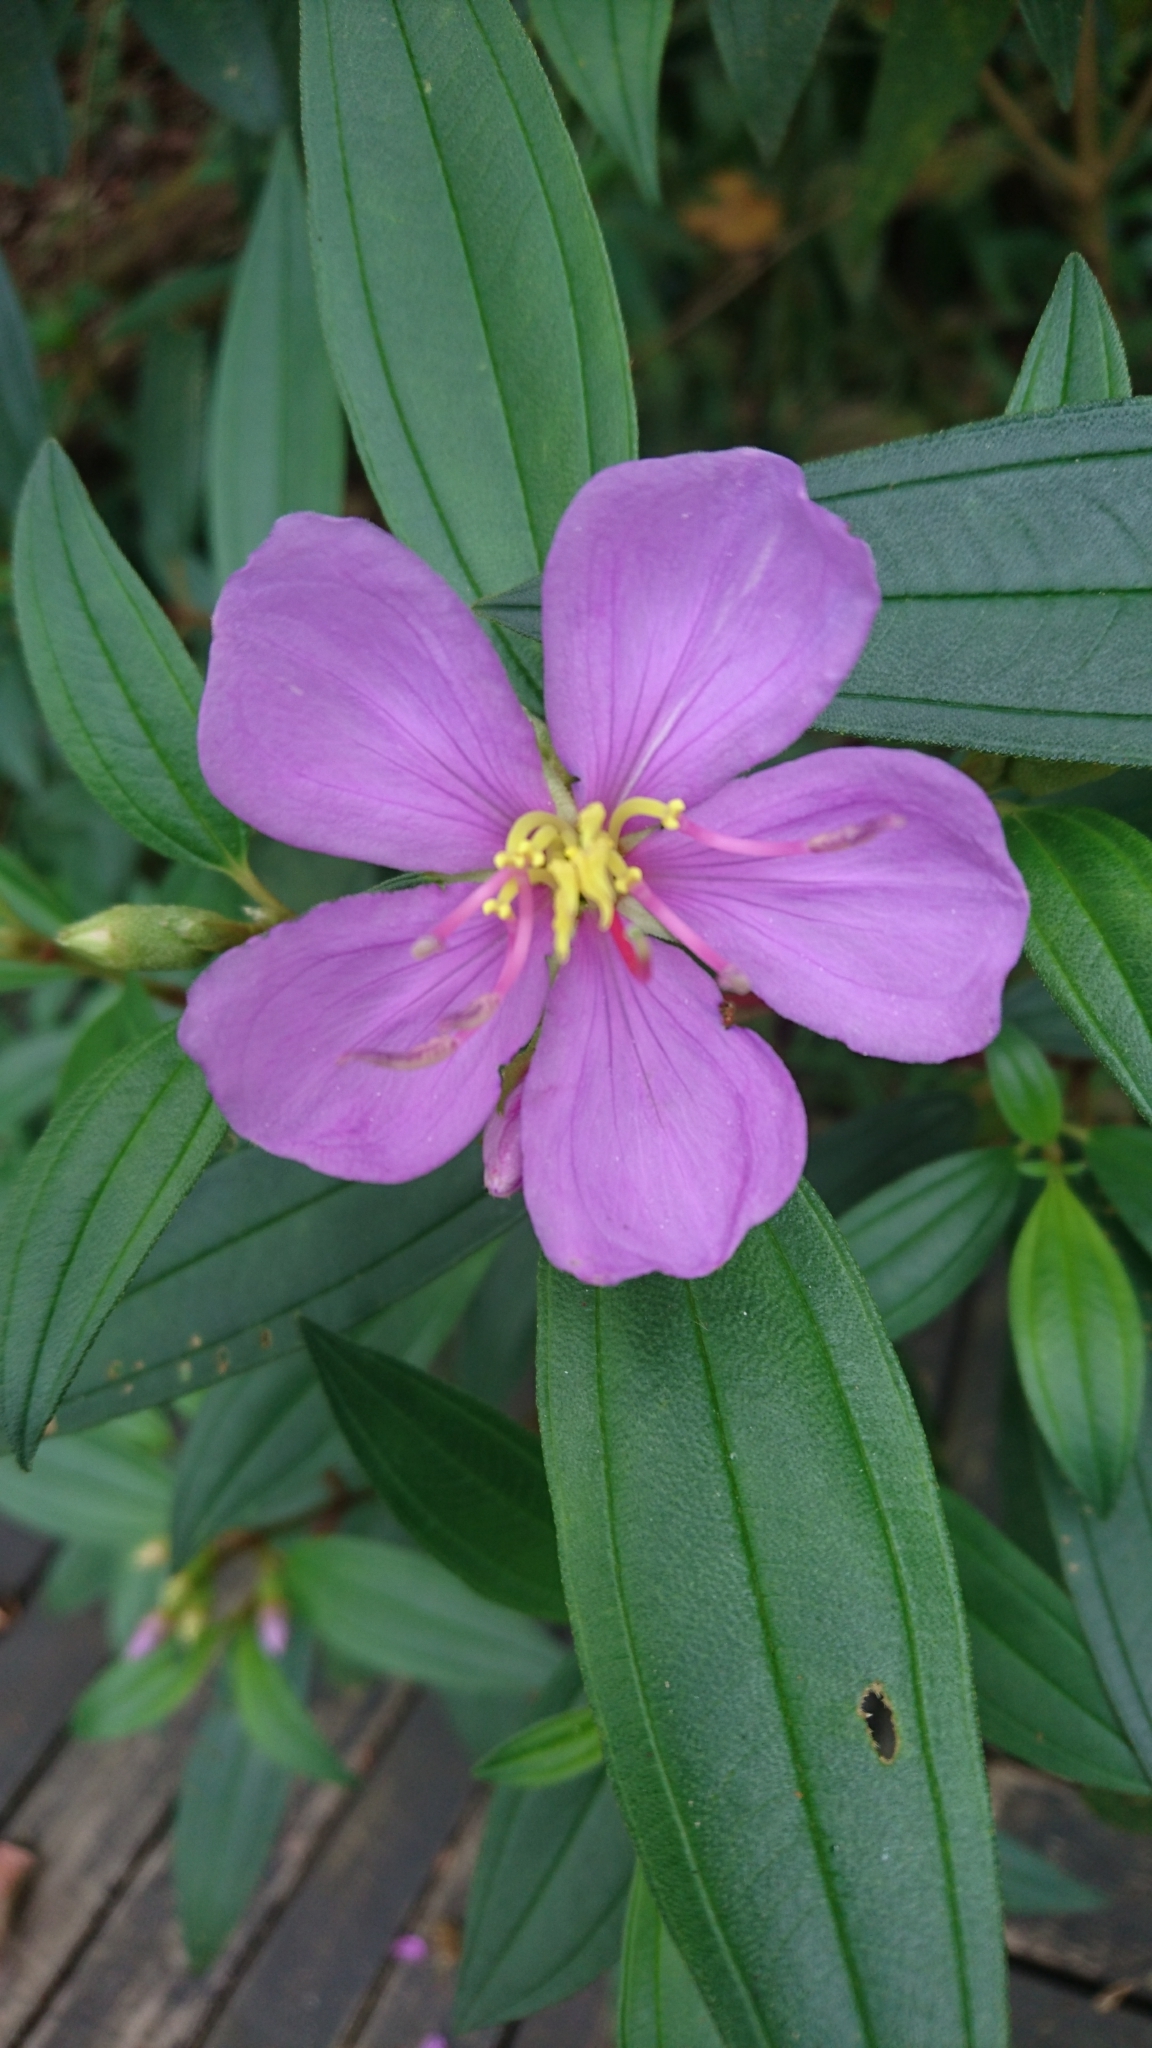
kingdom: Plantae
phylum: Tracheophyta
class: Magnoliopsida
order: Myrtales
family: Melastomataceae
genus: Melastoma
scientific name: Melastoma malabathricum
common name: Indian-rhododendron
